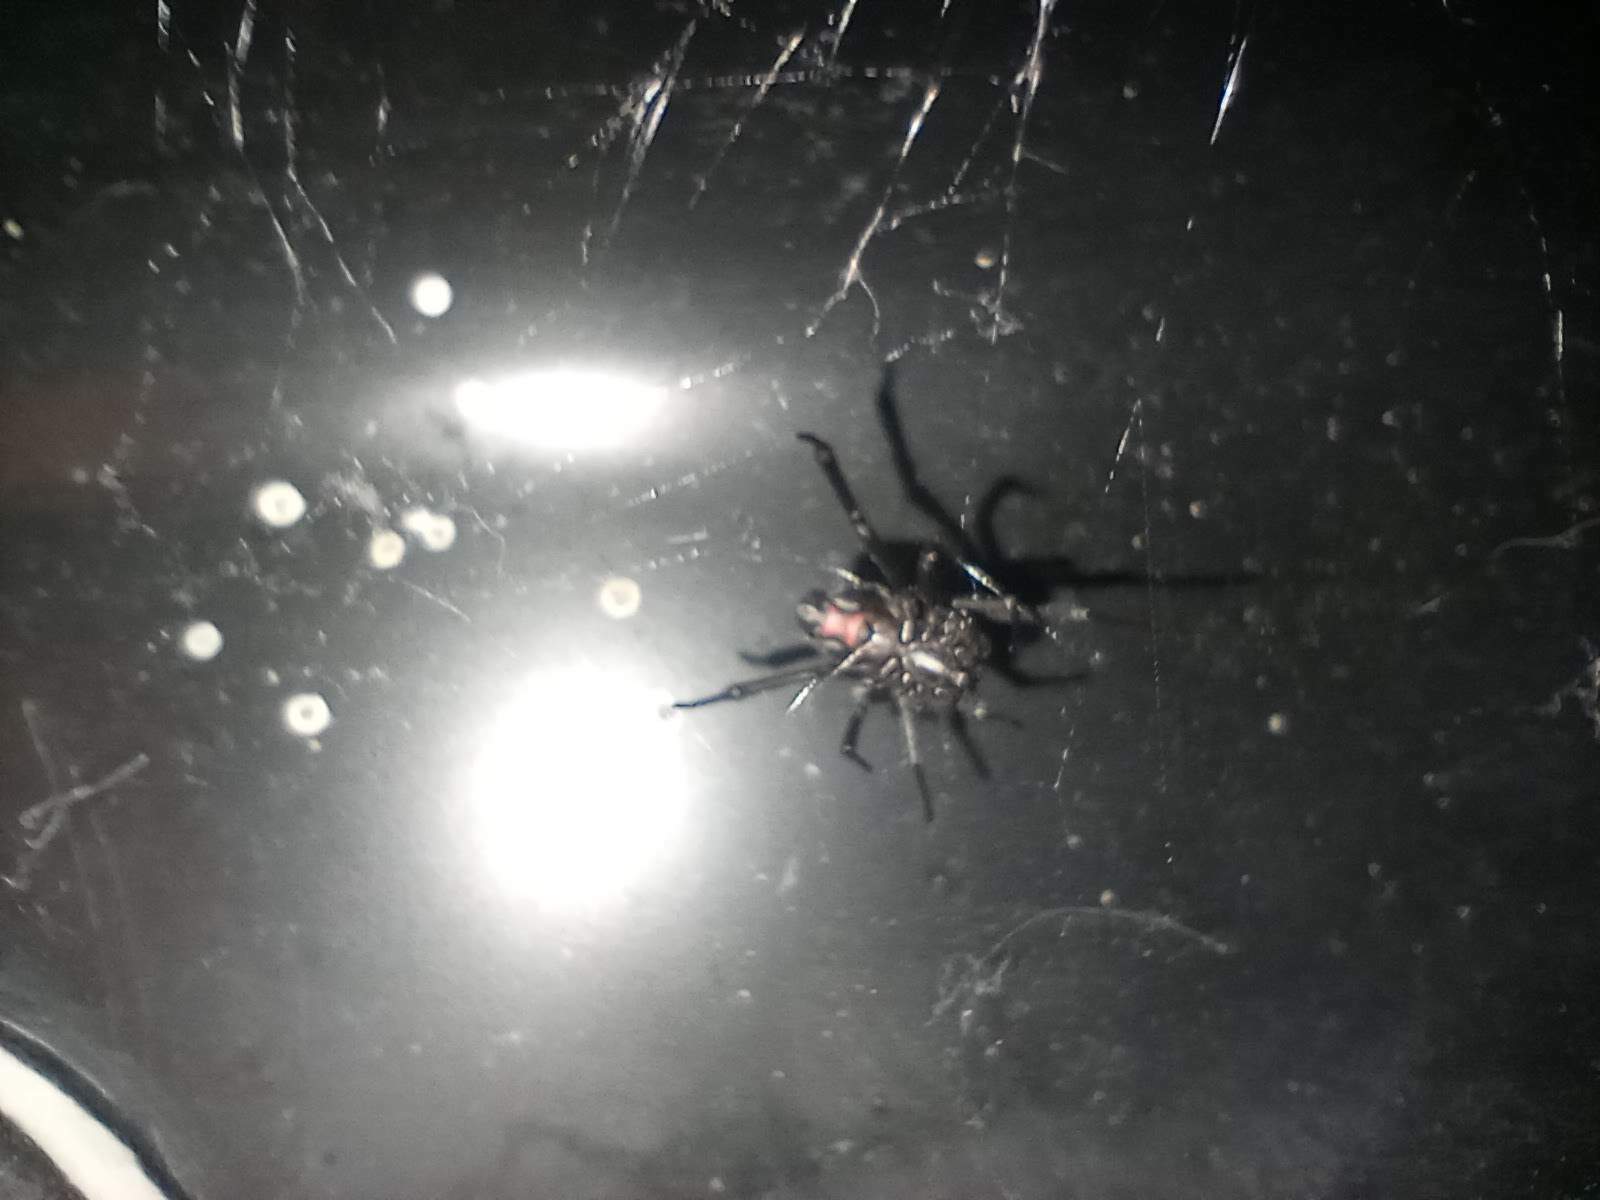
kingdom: Animalia
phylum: Arthropoda
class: Arachnida
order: Araneae
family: Theridiidae
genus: Latrodectus
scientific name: Latrodectus hesperus
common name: Western black widow
